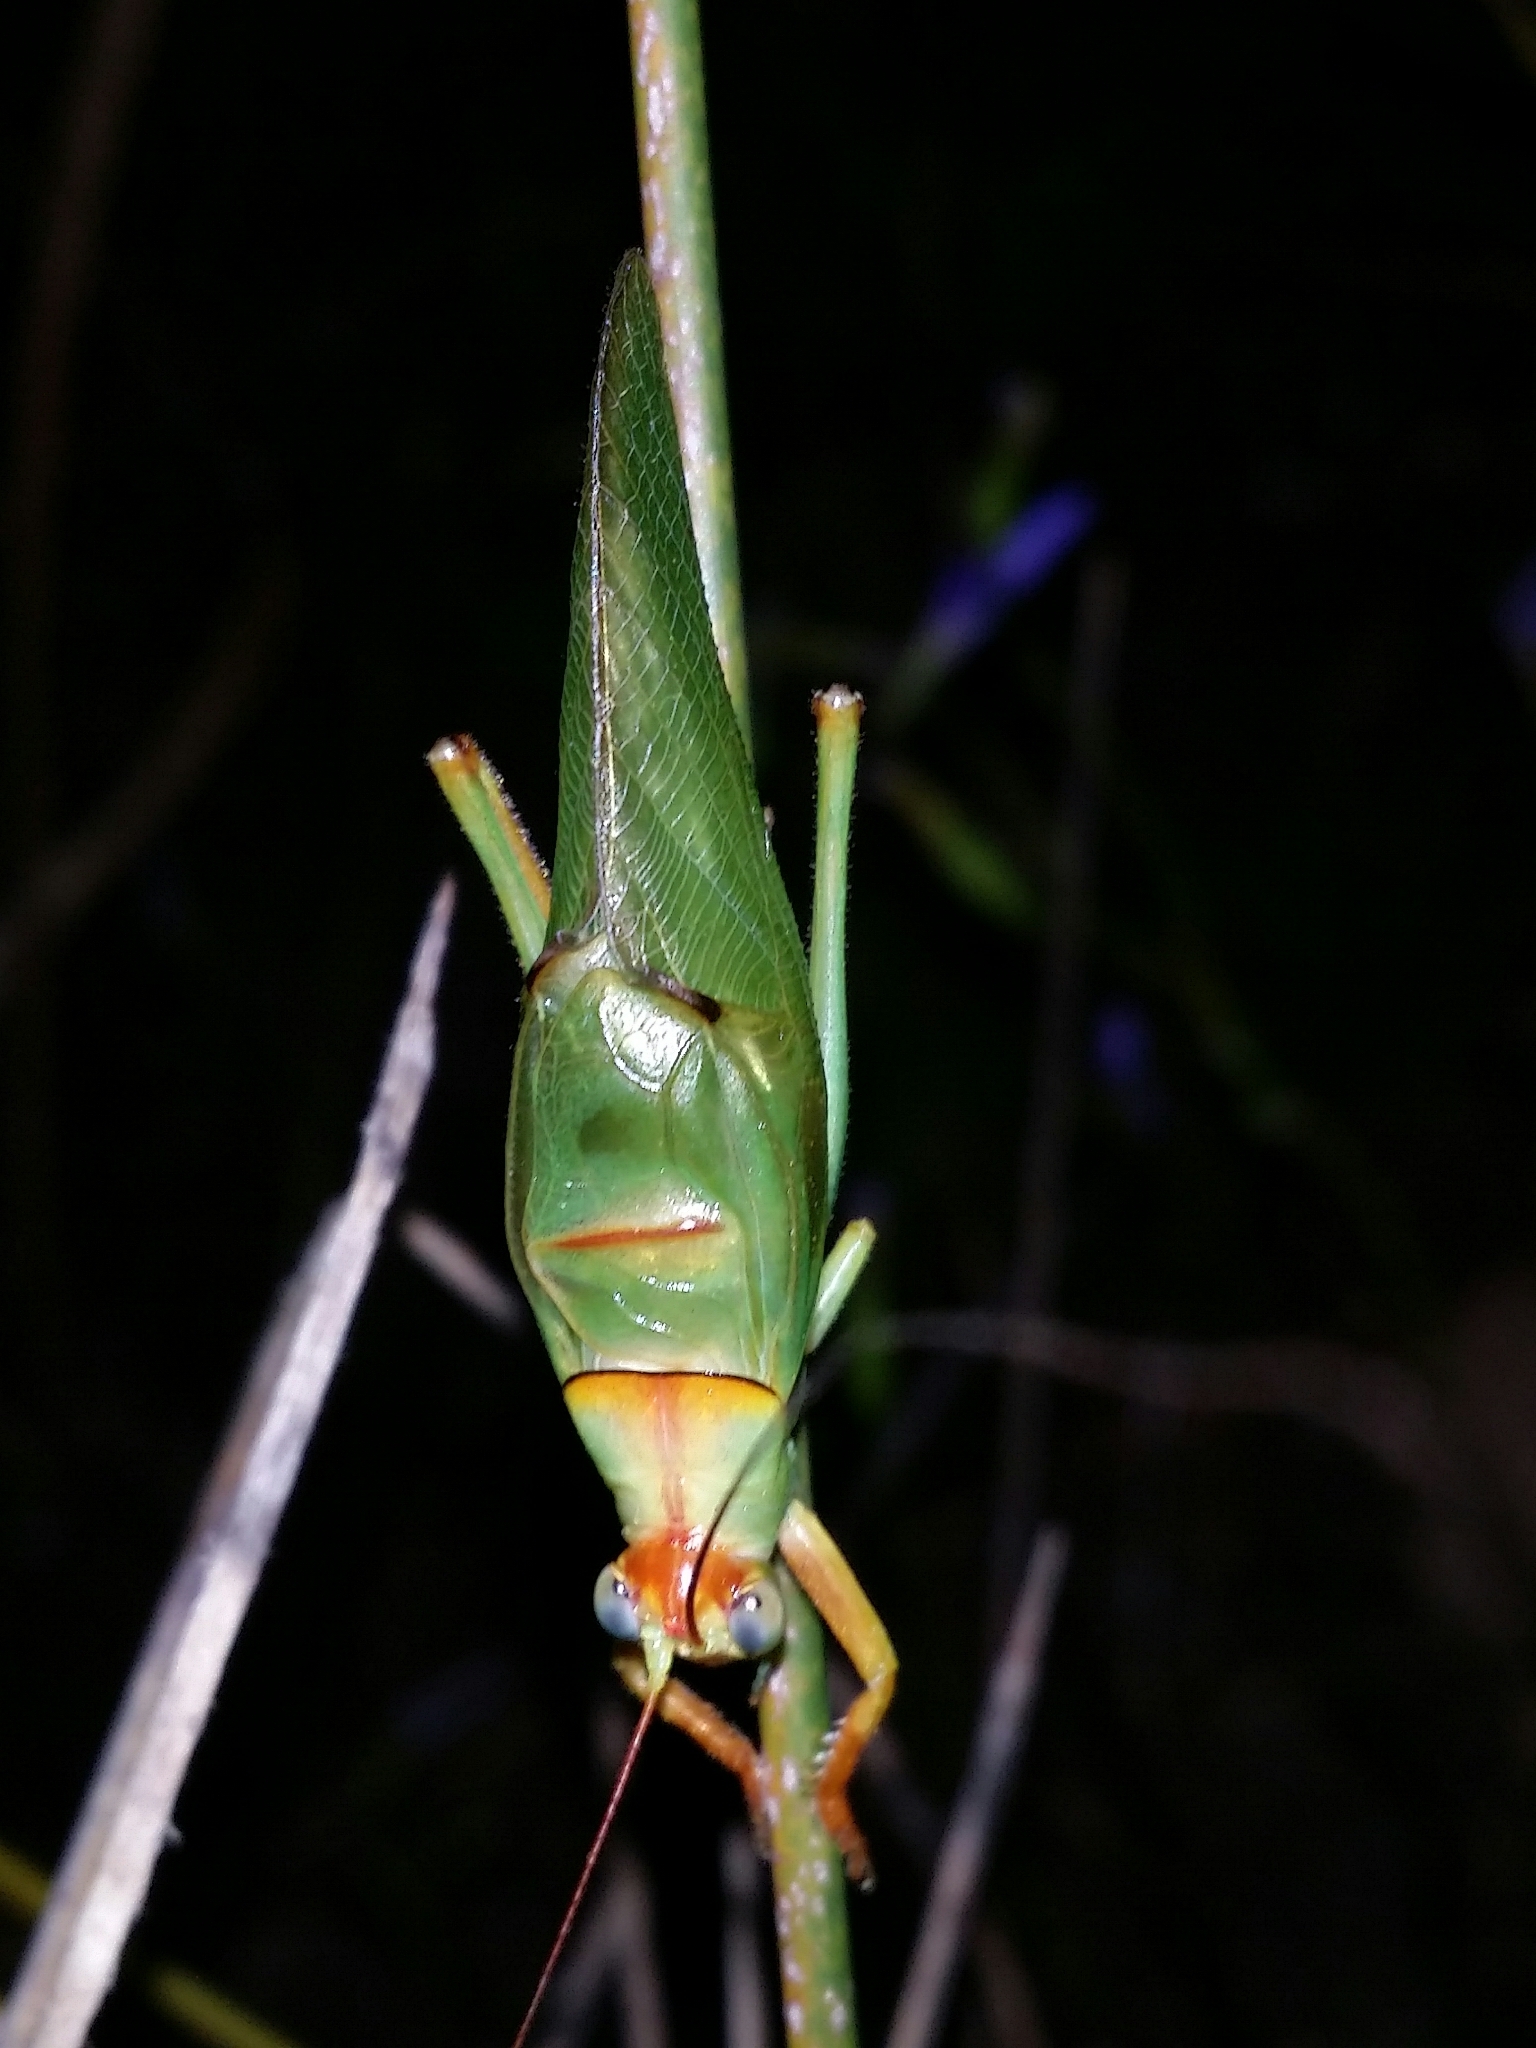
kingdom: Animalia
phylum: Arthropoda
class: Insecta
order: Orthoptera
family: Tettigoniidae
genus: Tympanophora
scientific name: Tympanophora andreae
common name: Andrea's balloon-winged katydid
